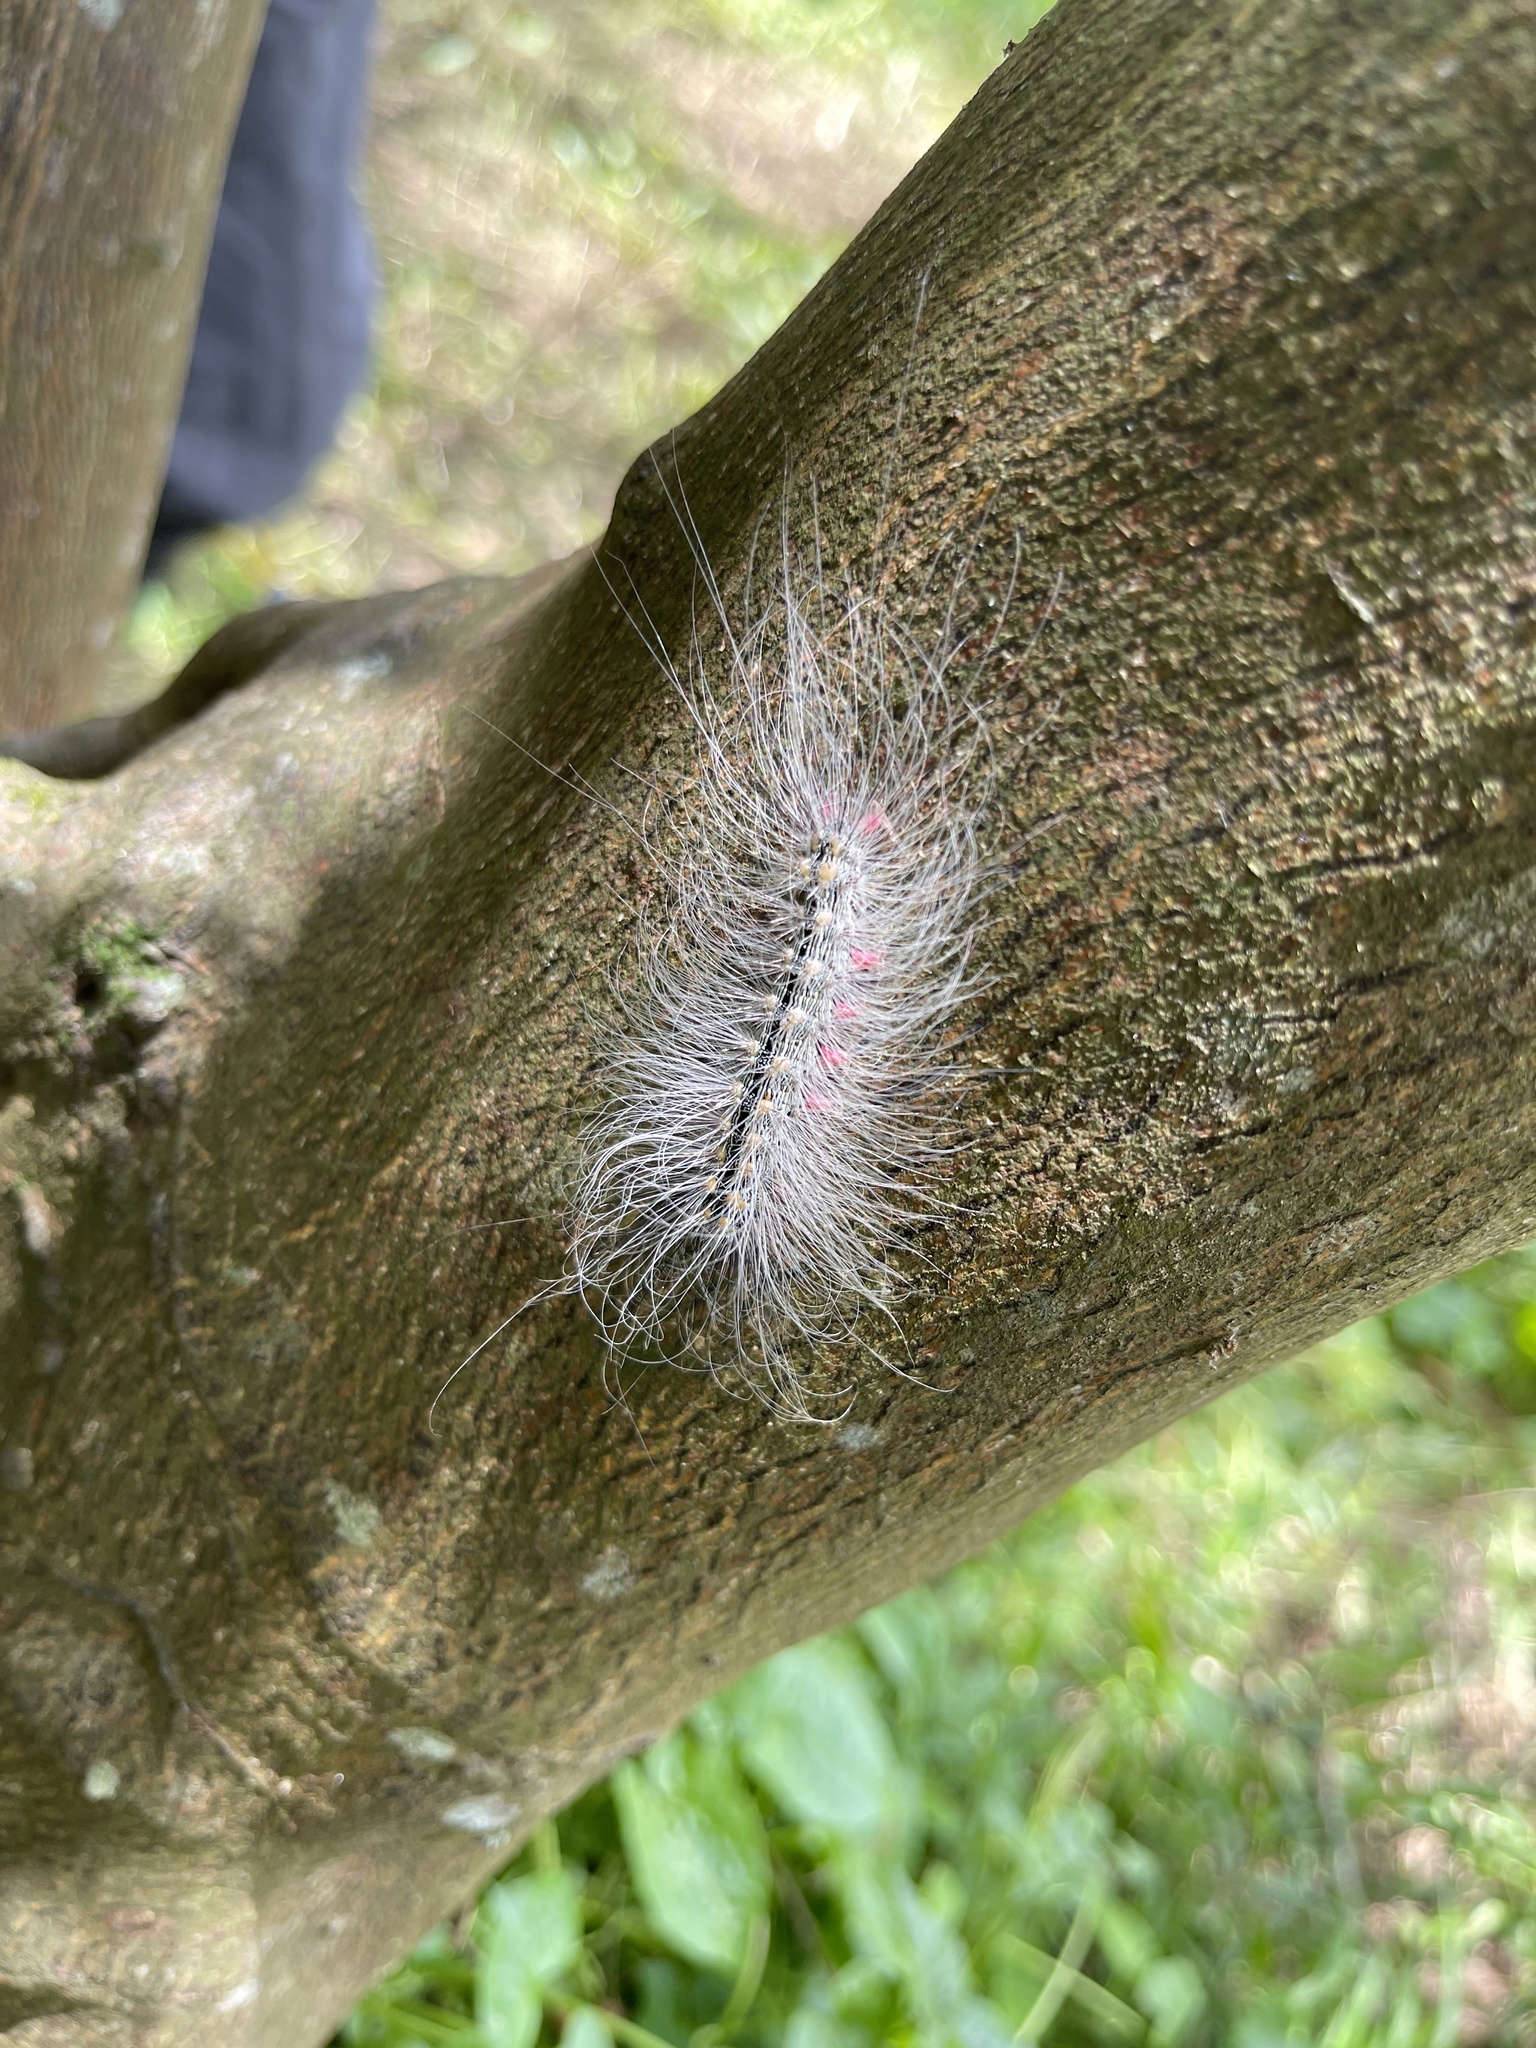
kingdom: Animalia
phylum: Arthropoda
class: Insecta
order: Lepidoptera
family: Erebidae
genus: Chrysaeglia
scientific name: Chrysaeglia magnifica
